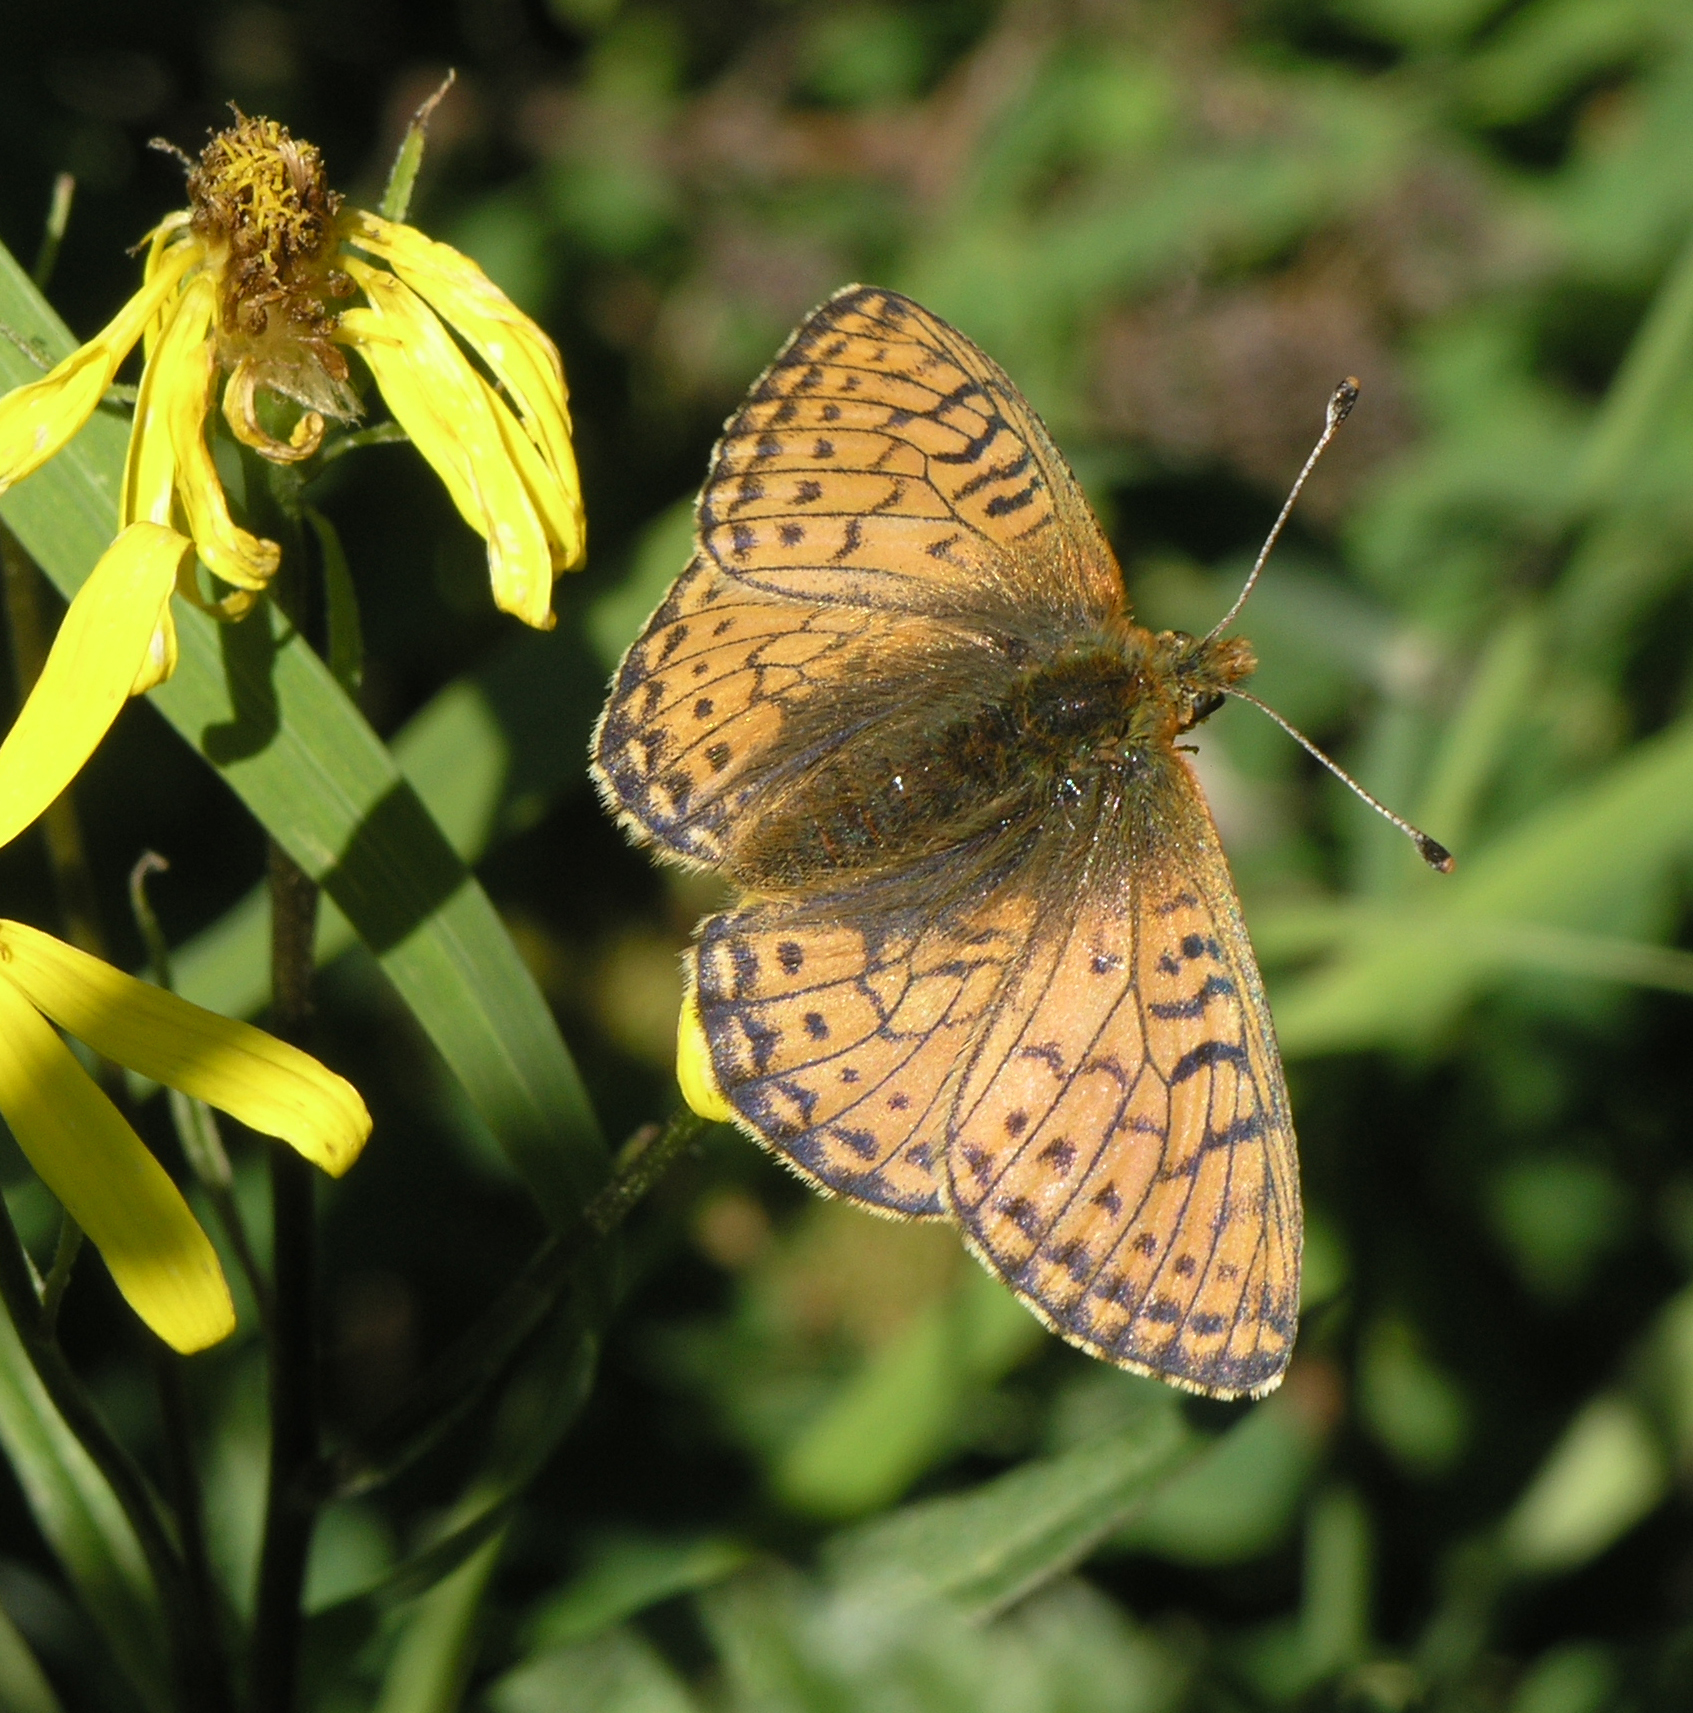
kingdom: Plantae
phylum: Tracheophyta
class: Magnoliopsida
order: Asterales
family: Asteraceae
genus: Senecio
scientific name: Senecio nemorensis
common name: Alpine ragwort
